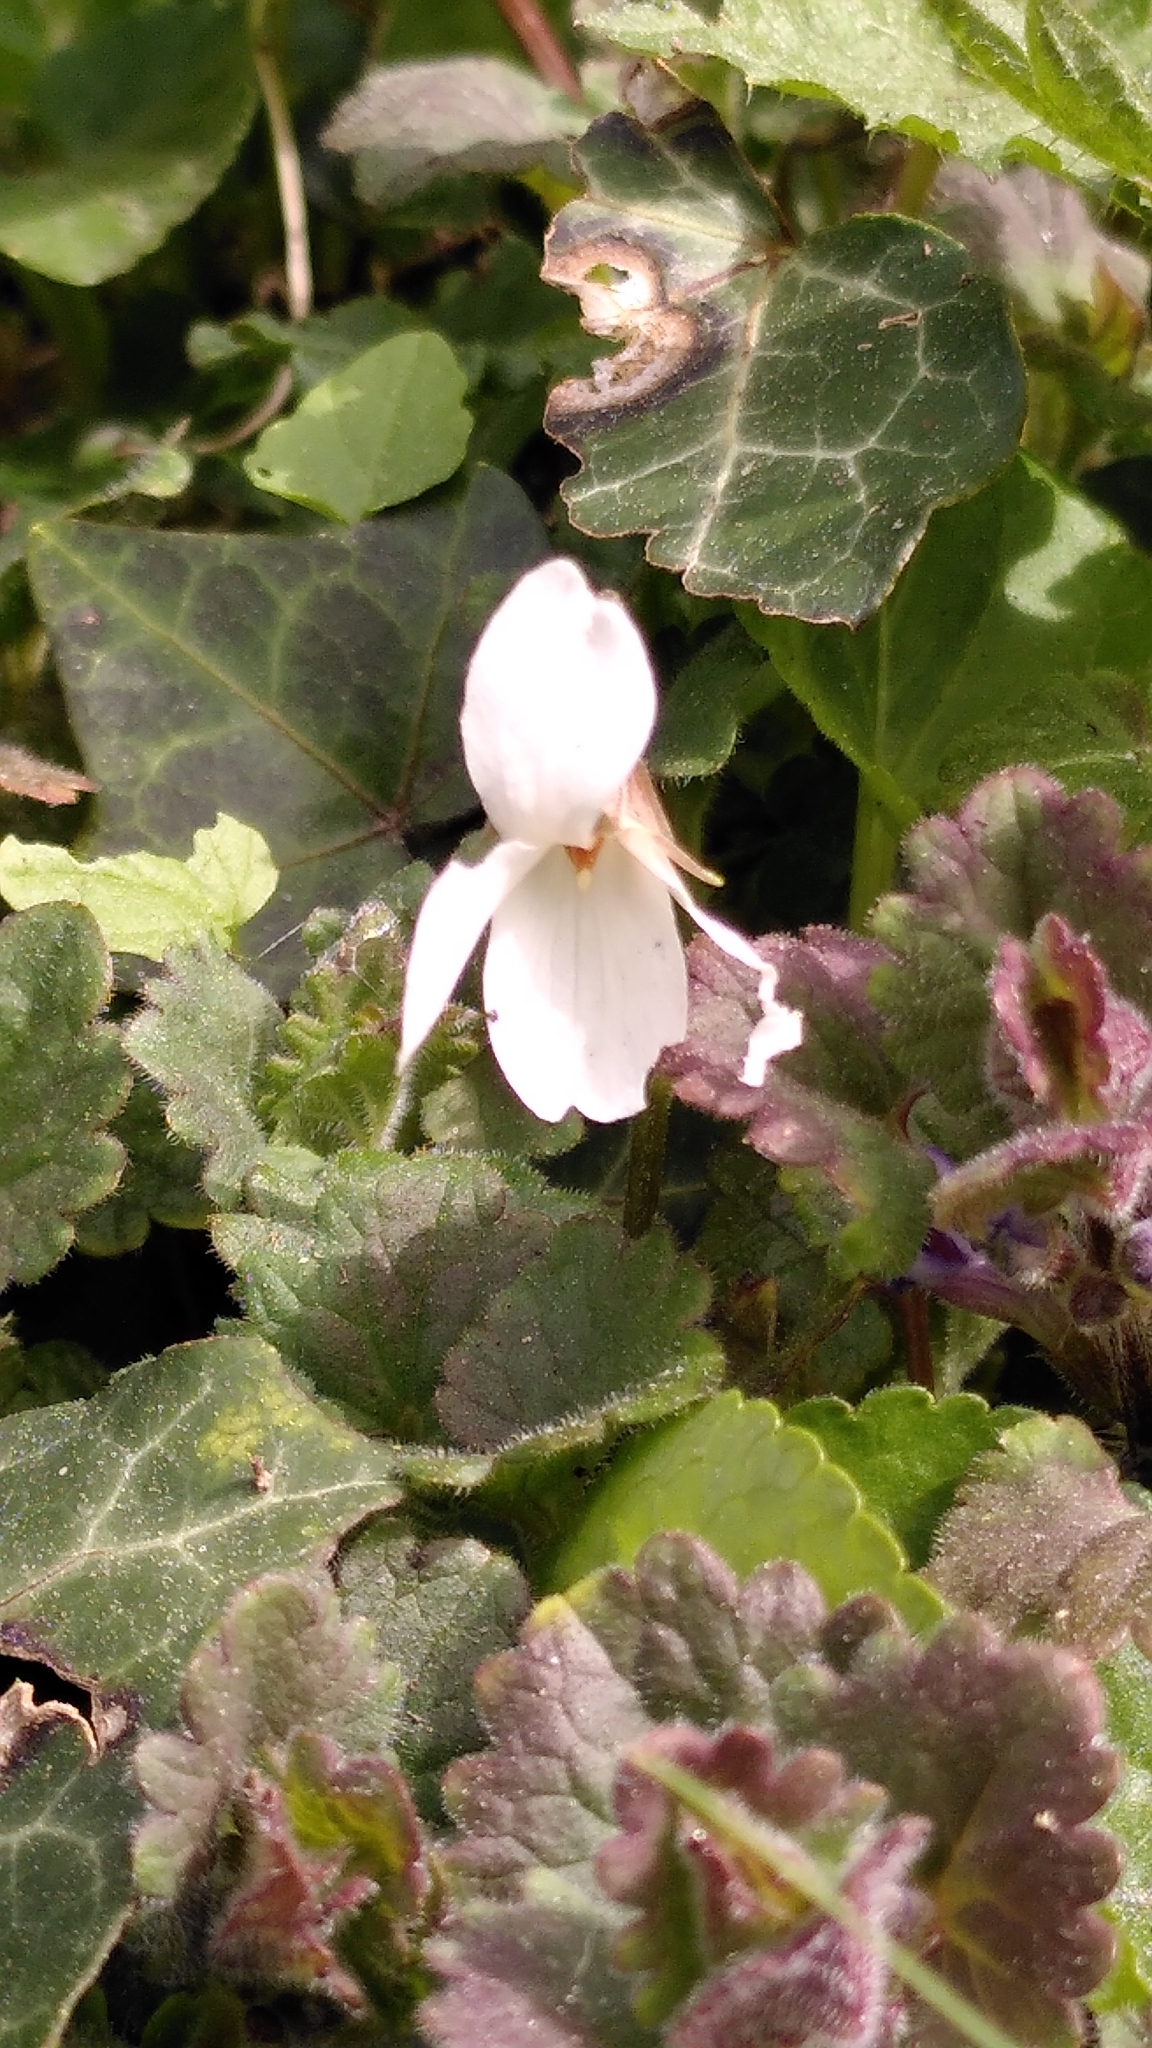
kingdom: Plantae
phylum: Tracheophyta
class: Magnoliopsida
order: Malpighiales
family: Violaceae
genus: Viola
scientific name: Viola odorata
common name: Sweet violet
